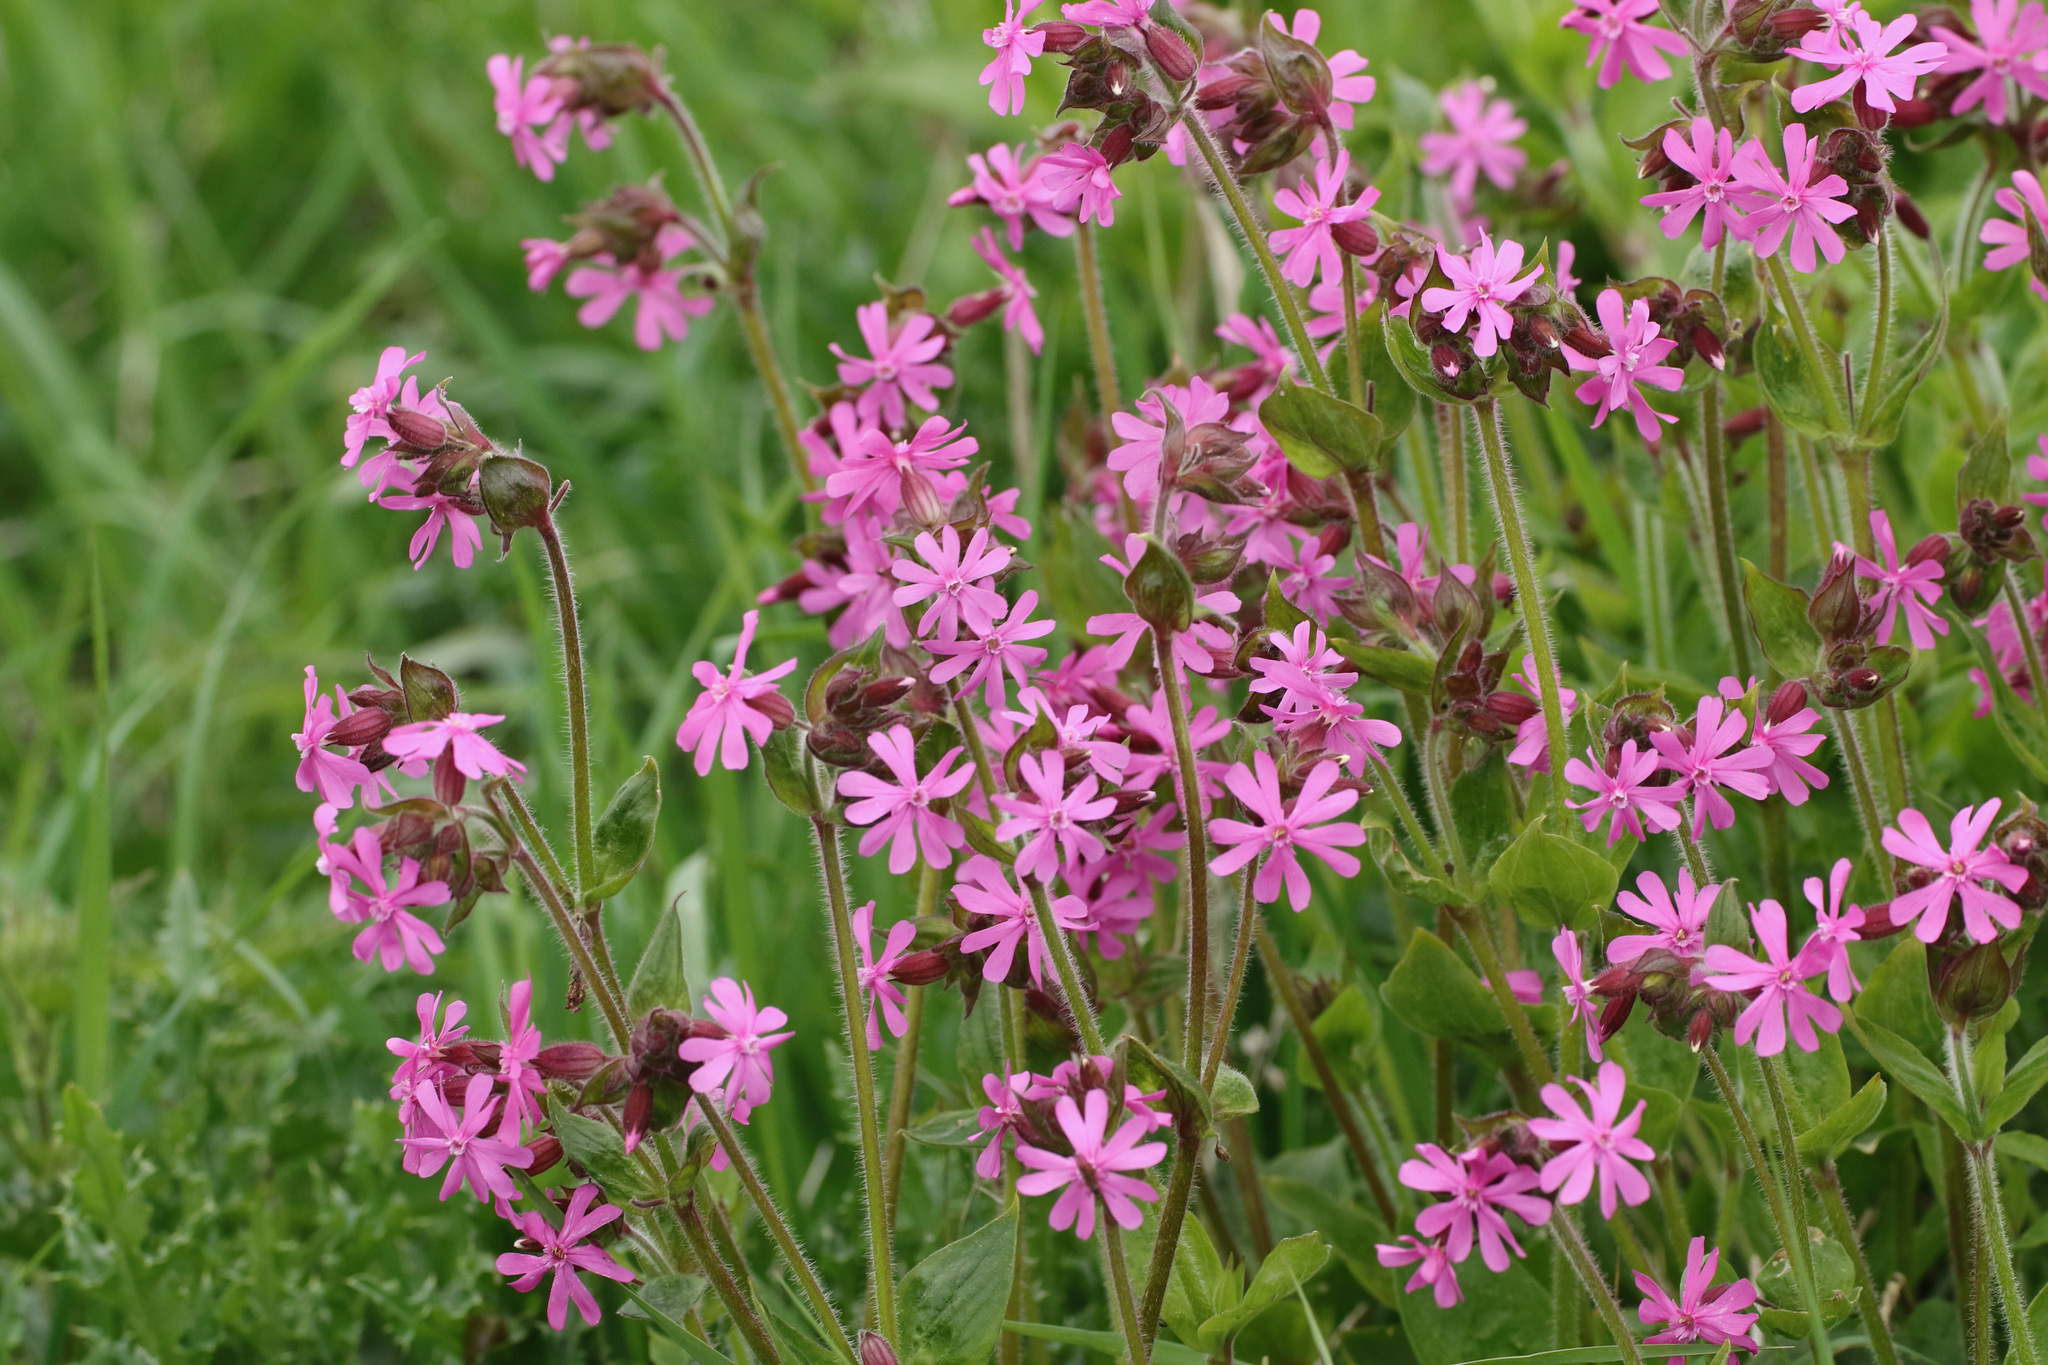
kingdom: Plantae
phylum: Tracheophyta
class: Magnoliopsida
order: Caryophyllales
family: Caryophyllaceae
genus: Silene
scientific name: Silene dioica
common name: Red campion
